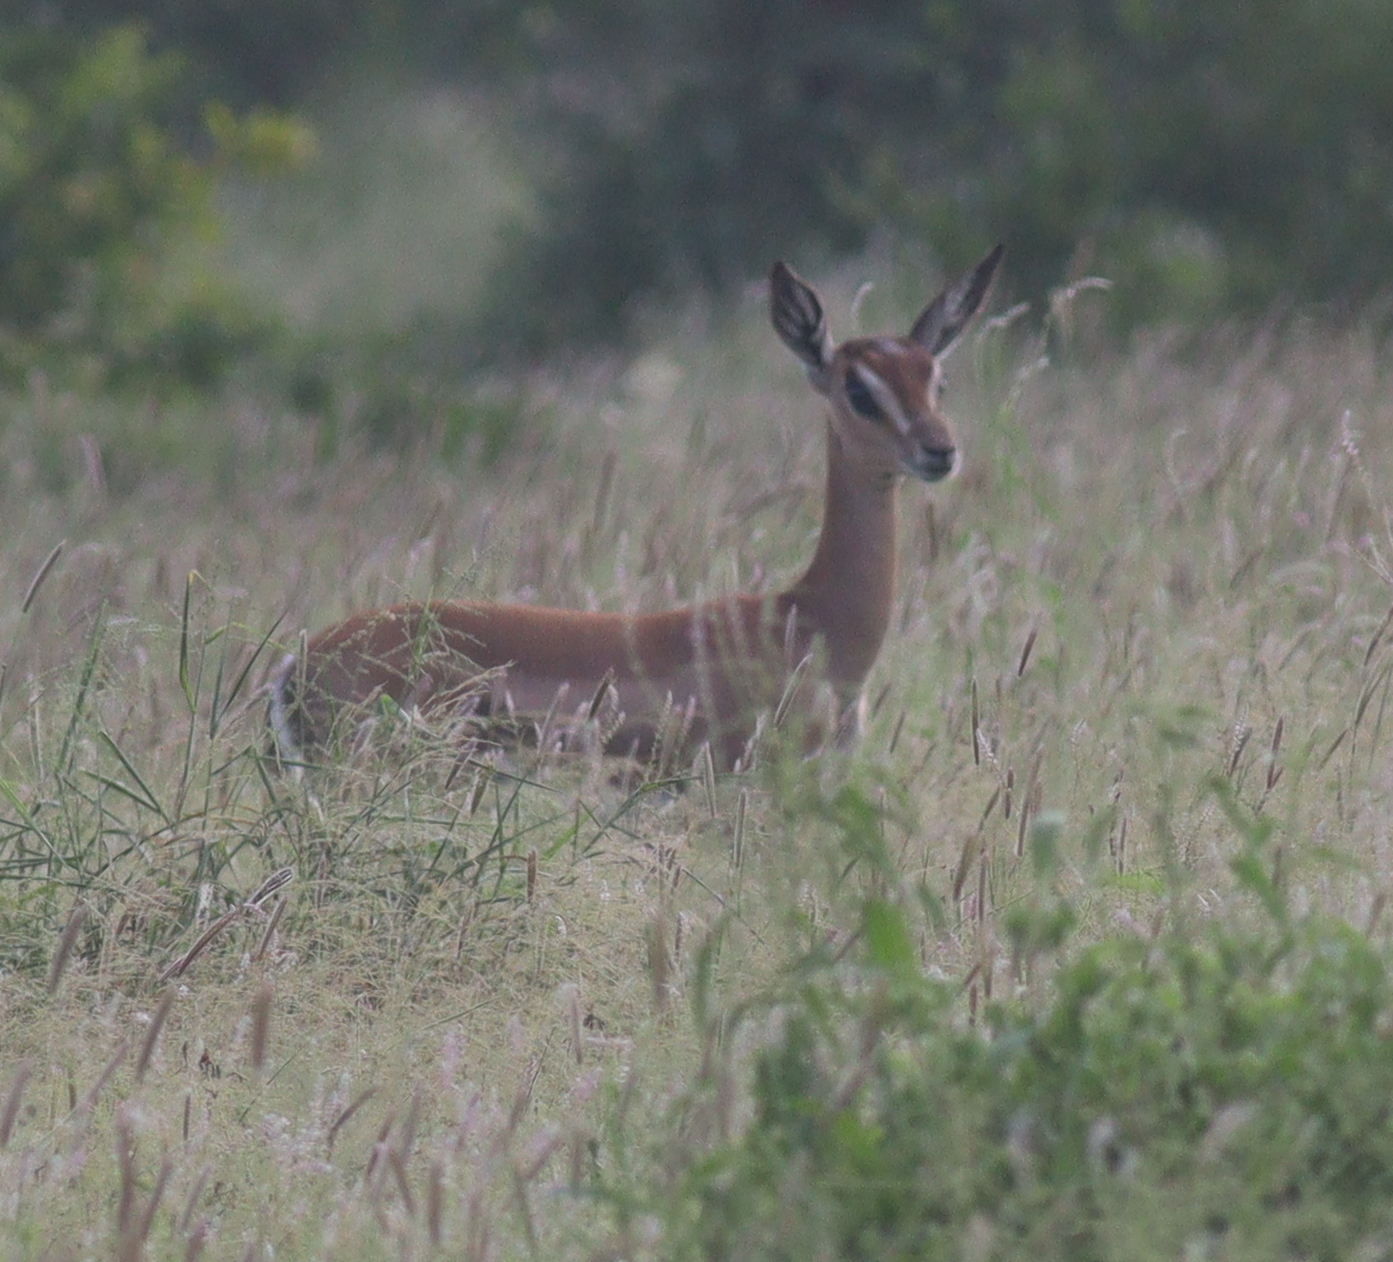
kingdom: Animalia
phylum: Chordata
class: Mammalia
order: Artiodactyla
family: Bovidae
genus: Nanger
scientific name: Nanger granti
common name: Grant's gazelle
